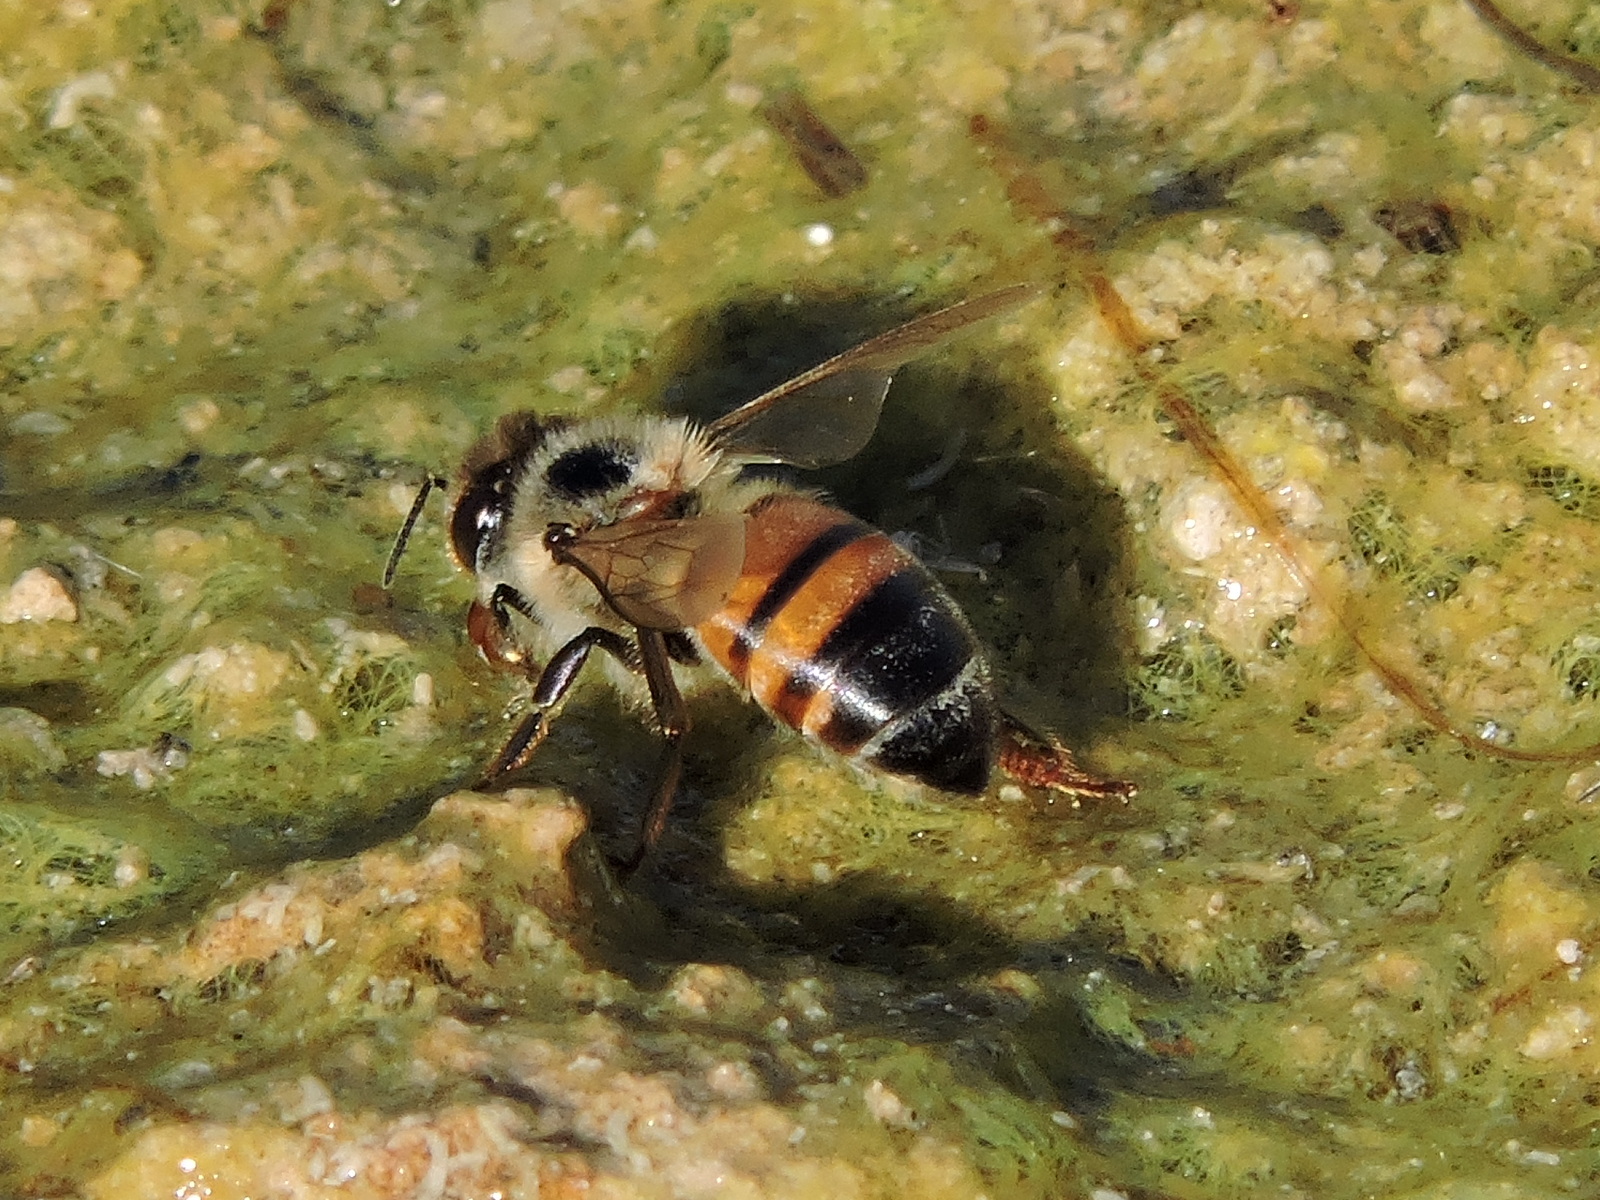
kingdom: Animalia
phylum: Arthropoda
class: Insecta
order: Hymenoptera
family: Apidae
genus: Apis
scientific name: Apis mellifera
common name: Honey bee
